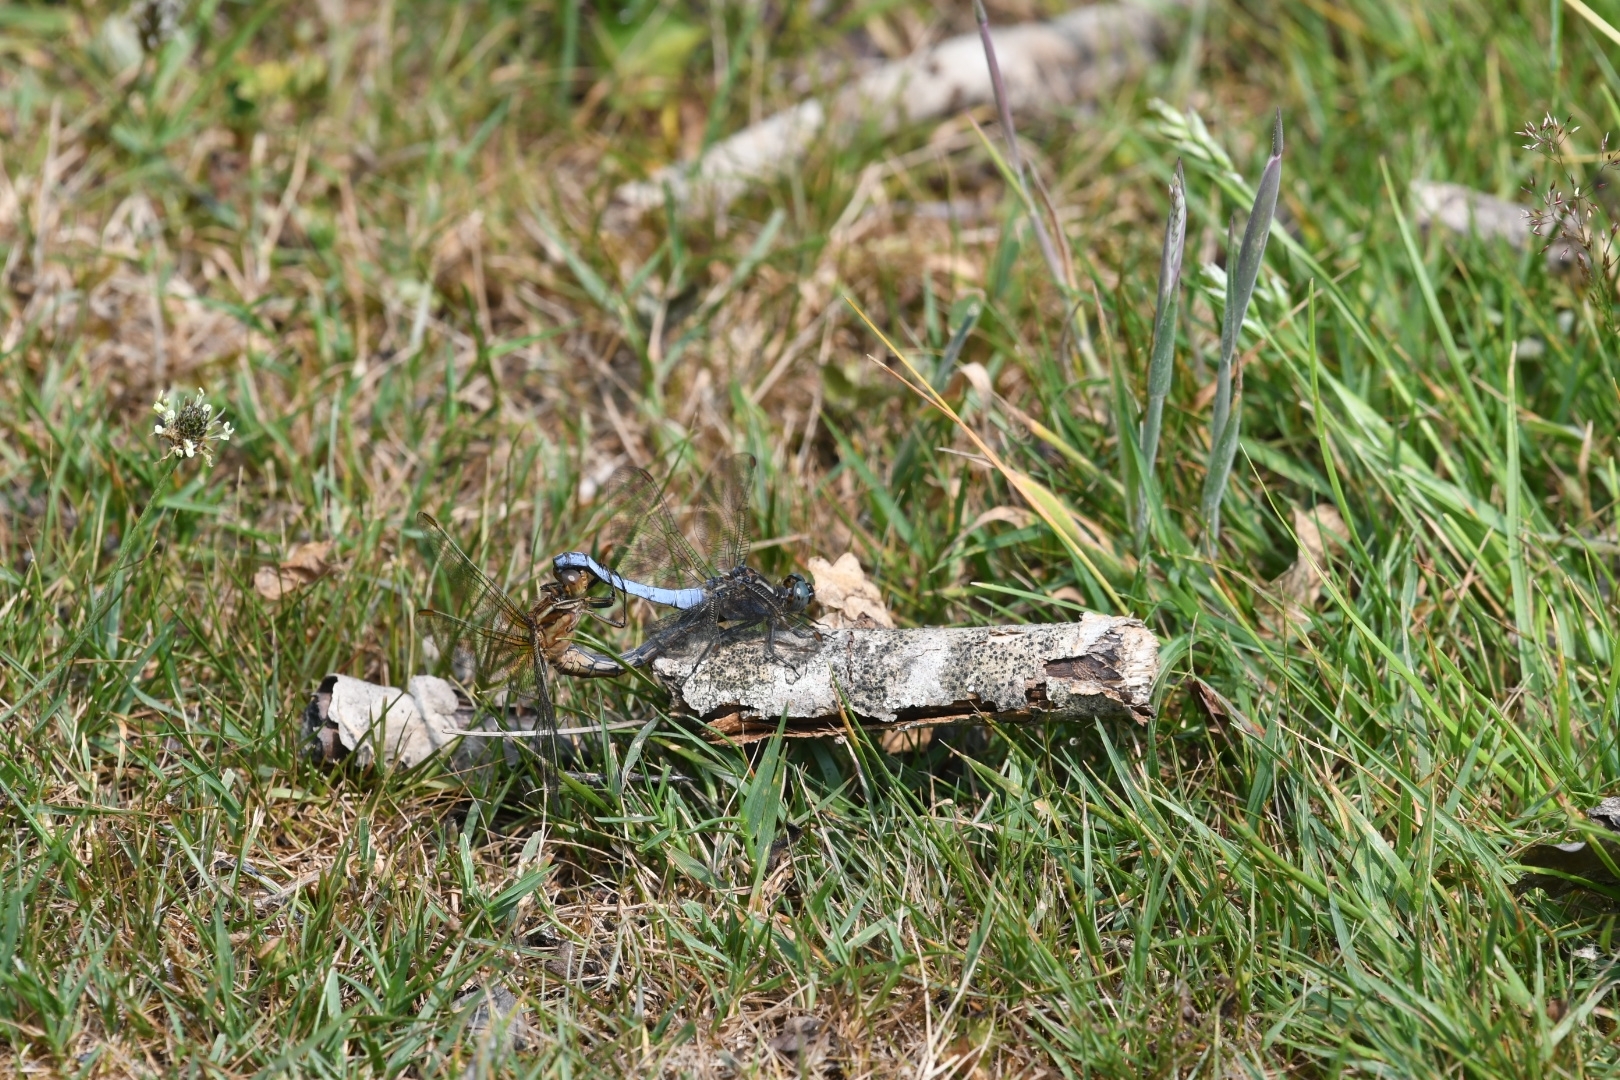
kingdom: Animalia
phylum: Arthropoda
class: Insecta
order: Odonata
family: Libellulidae
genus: Orthetrum
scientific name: Orthetrum cancellatum
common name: Black-tailed skimmer
